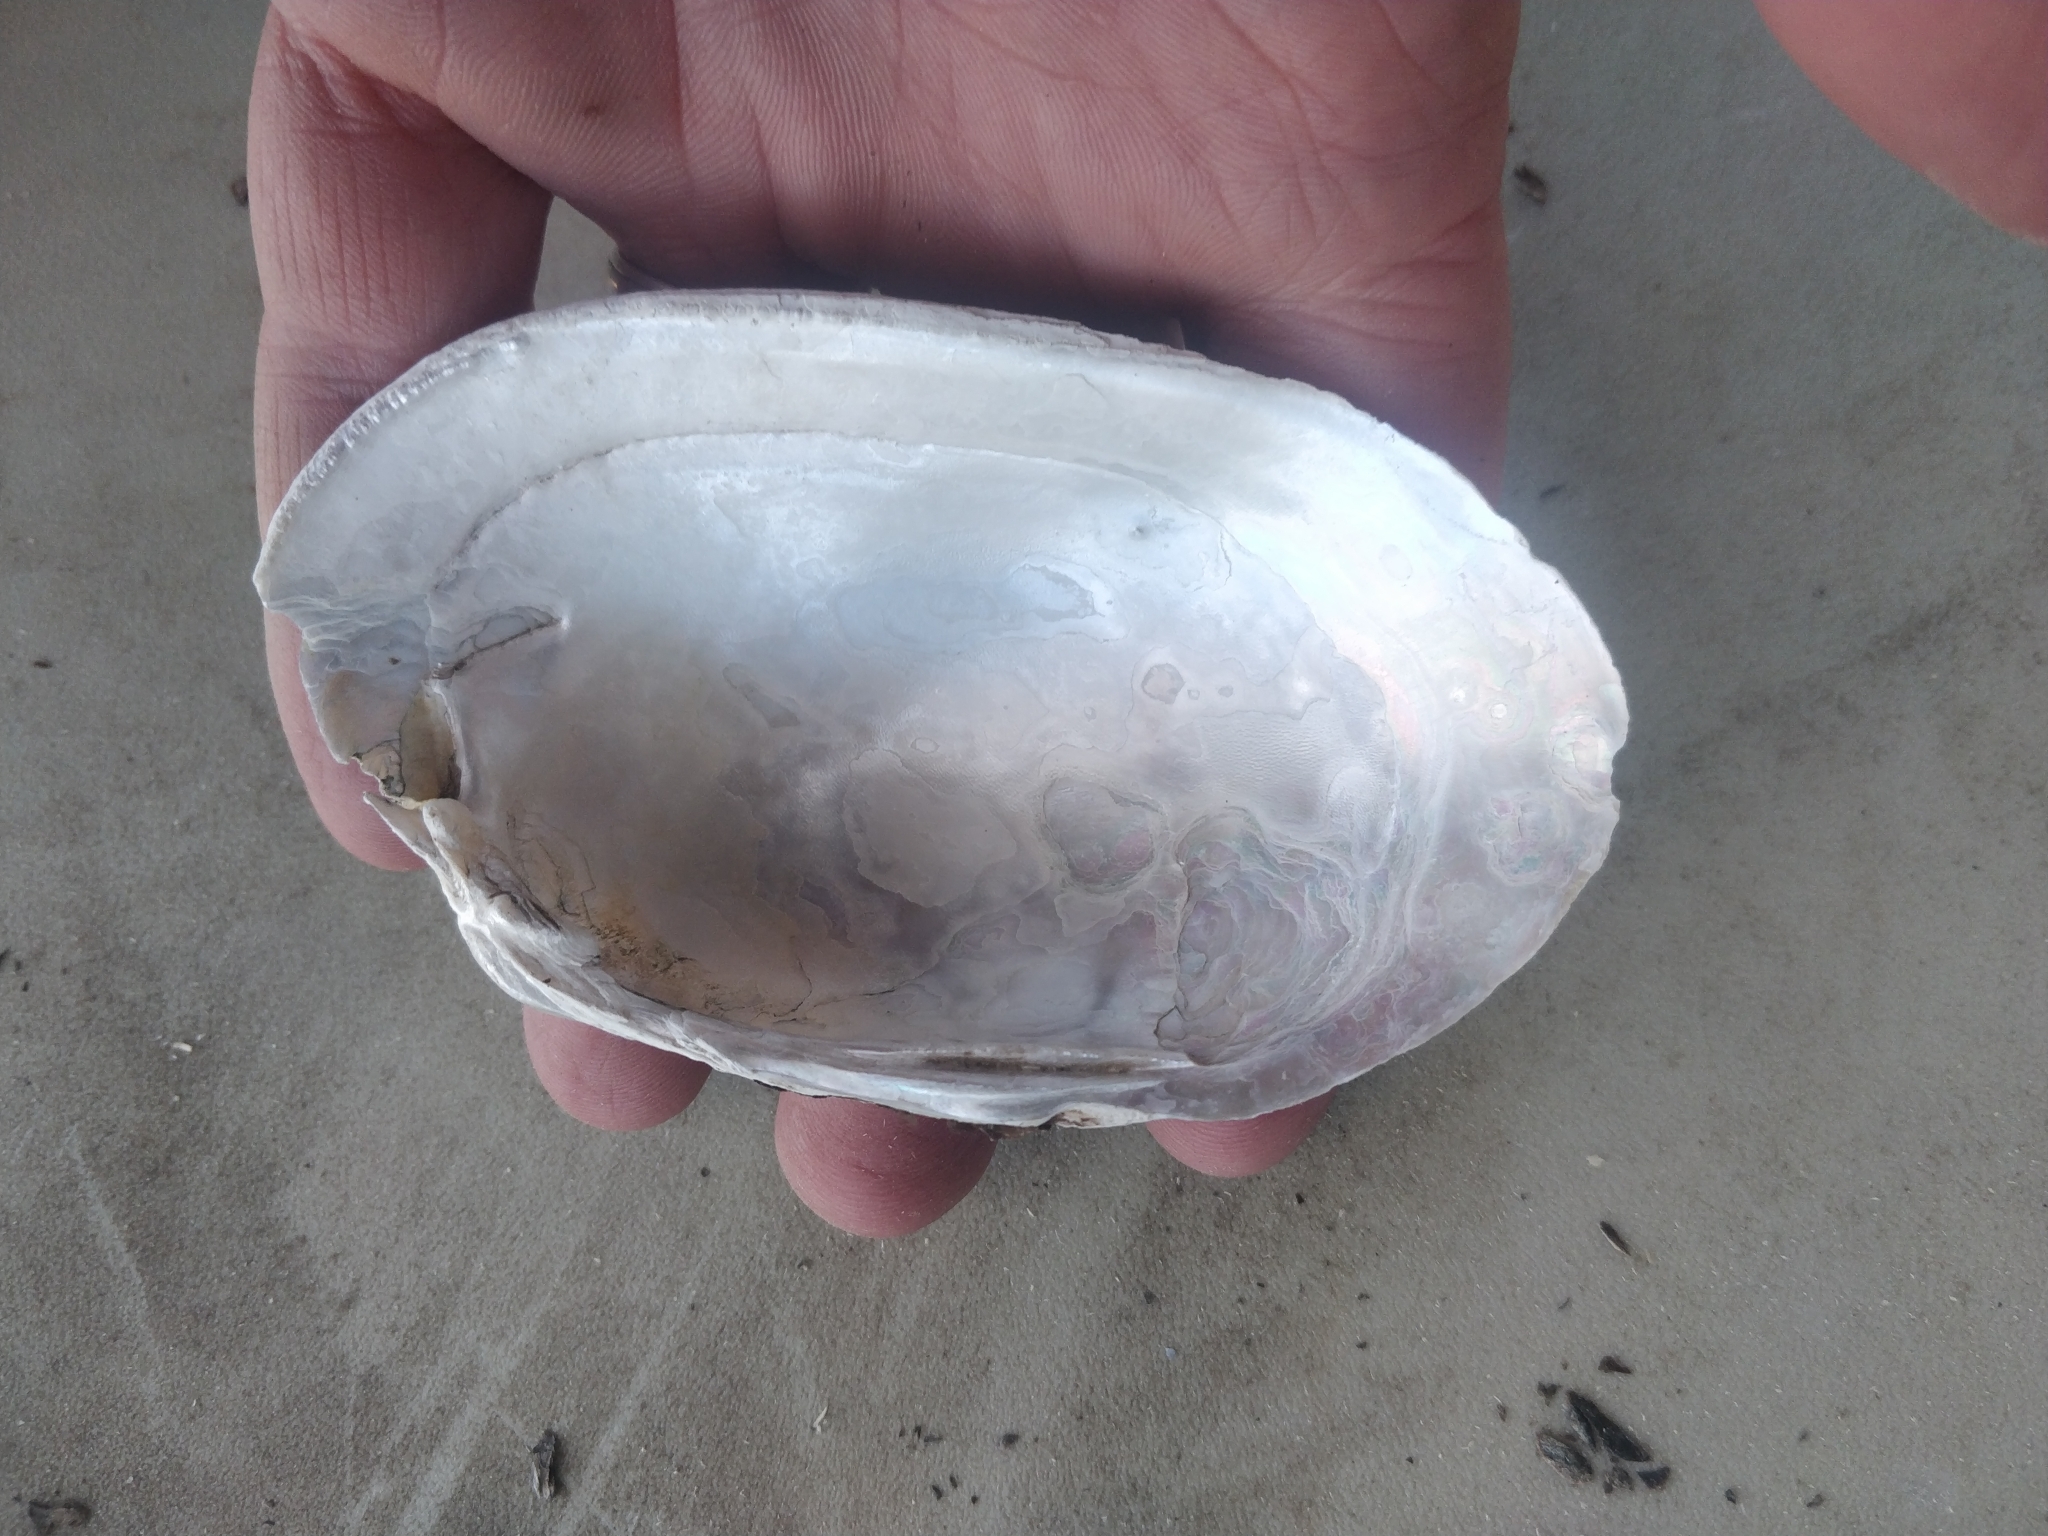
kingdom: Animalia
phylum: Mollusca
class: Bivalvia
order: Unionida
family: Unionidae
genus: Lampsilis
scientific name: Lampsilis siliquoidea
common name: Fatmucket
